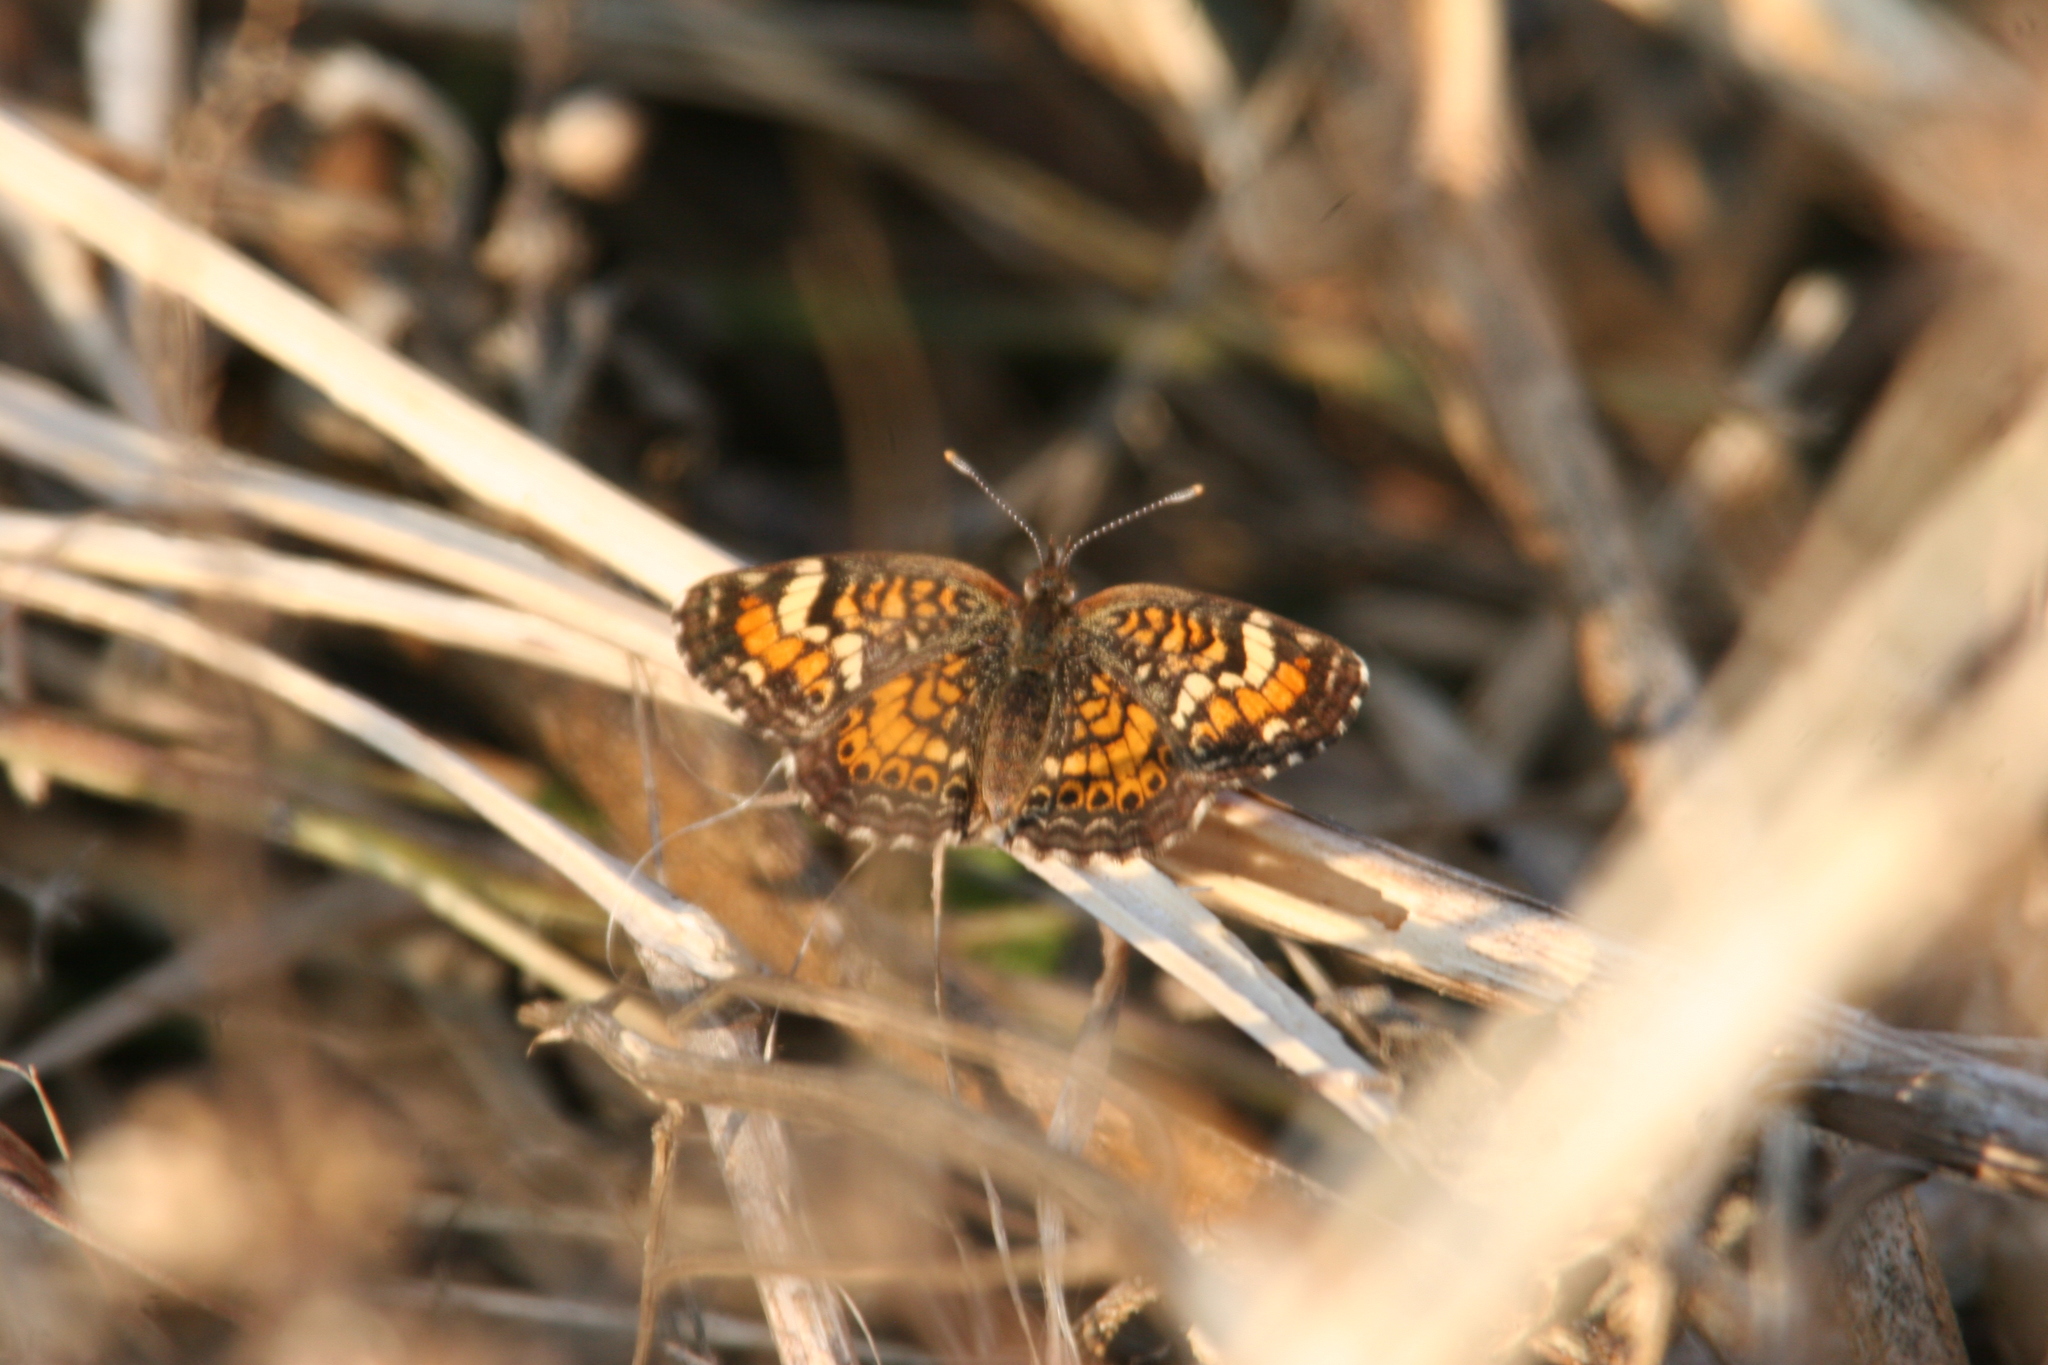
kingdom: Animalia
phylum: Arthropoda
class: Insecta
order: Lepidoptera
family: Nymphalidae
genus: Phyciodes
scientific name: Phyciodes phaon
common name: Phaon crescent
